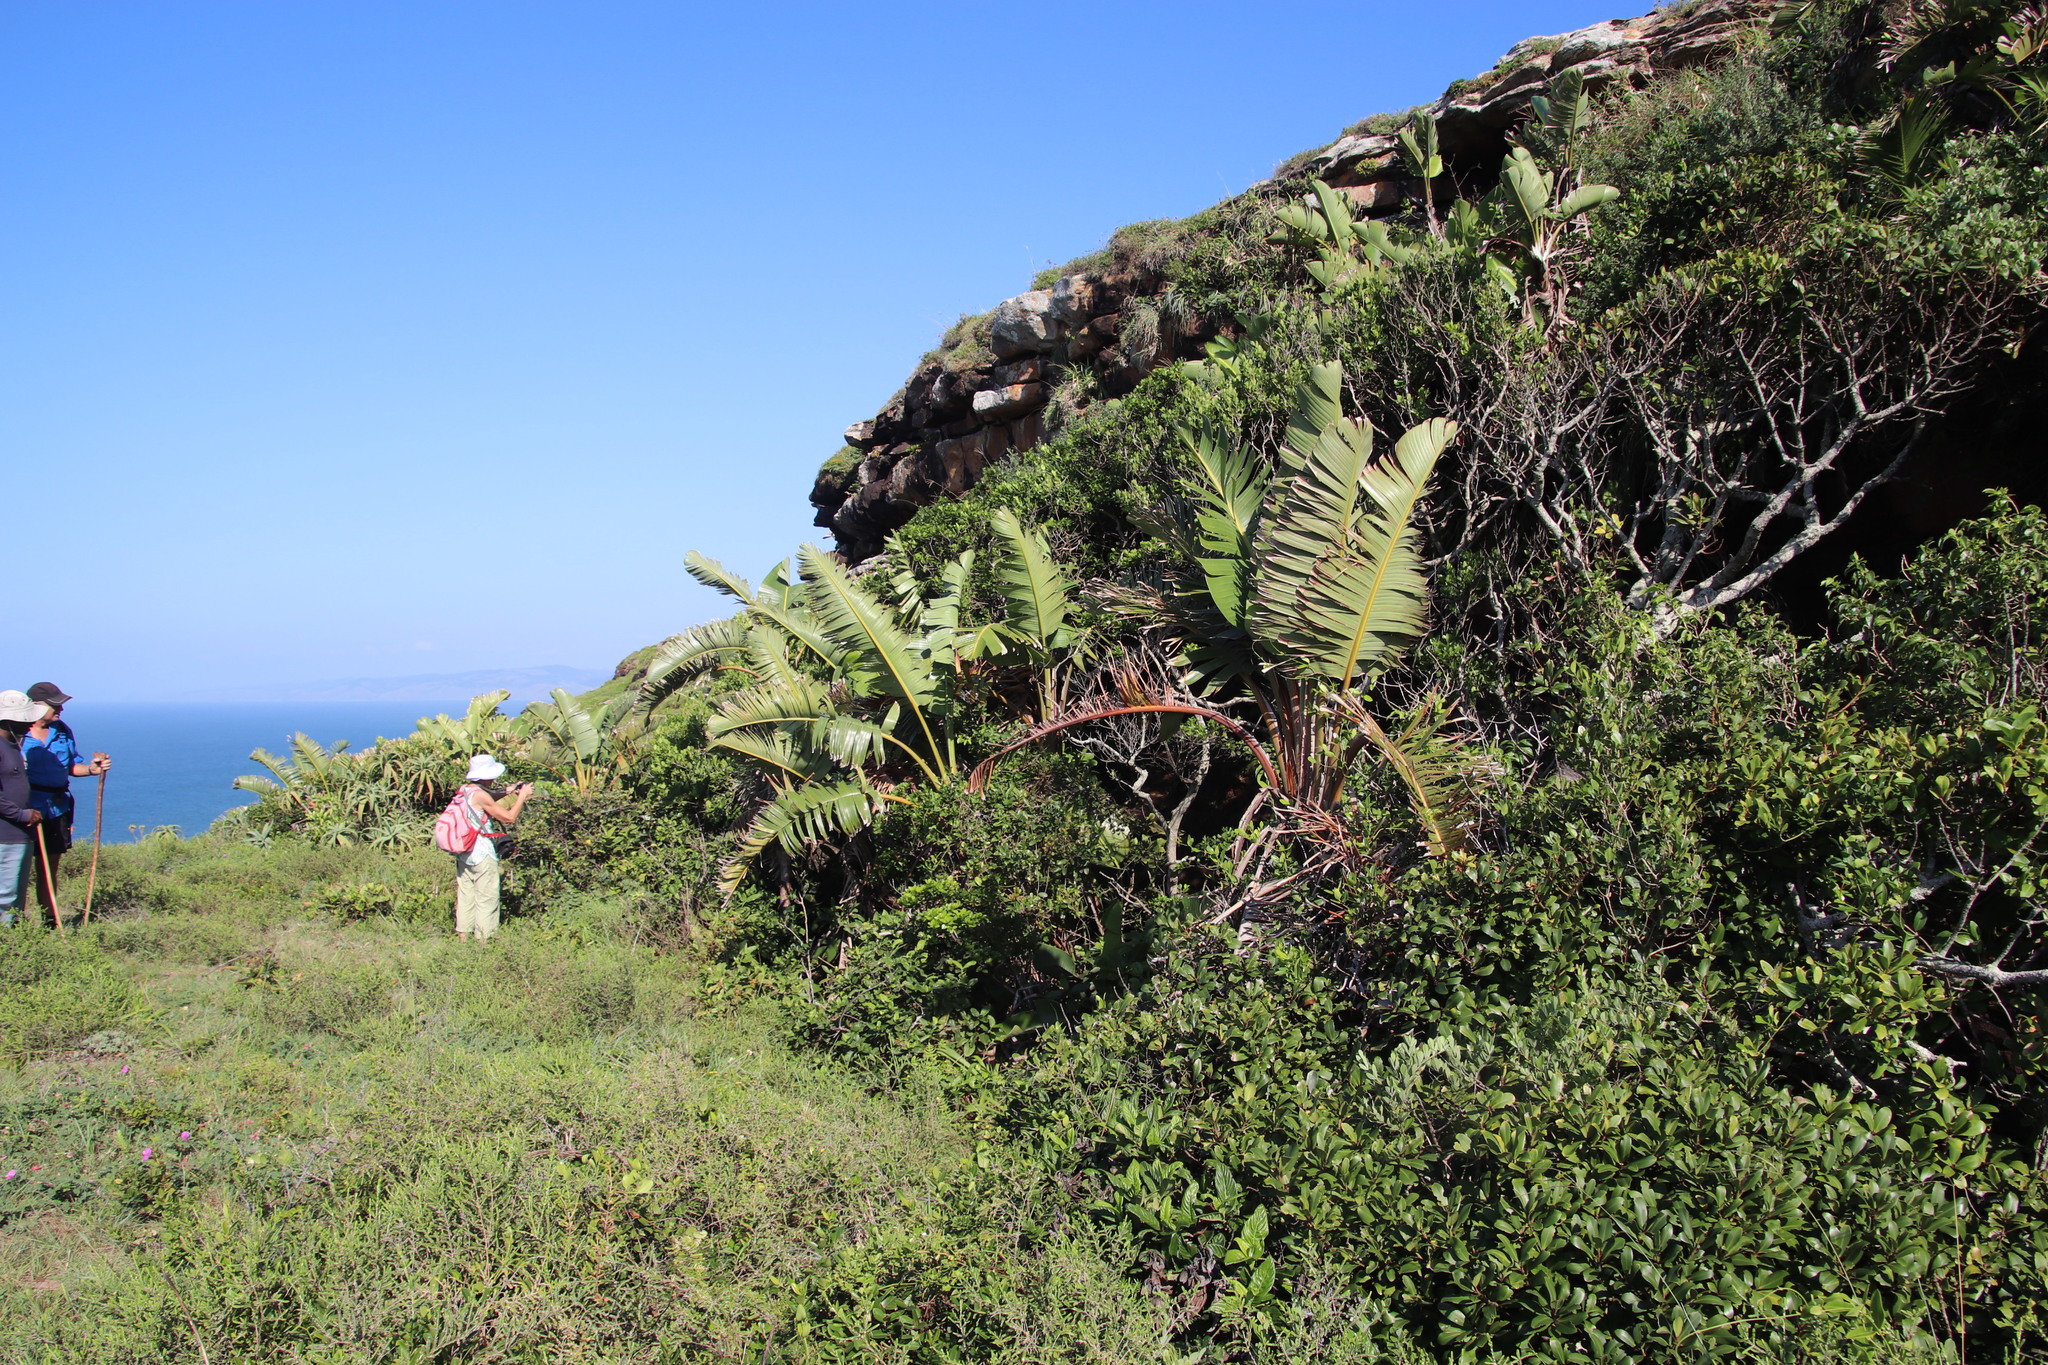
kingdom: Plantae
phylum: Tracheophyta
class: Liliopsida
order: Zingiberales
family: Strelitziaceae
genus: Strelitzia
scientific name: Strelitzia nicolai
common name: Bird-of-paradise tree
